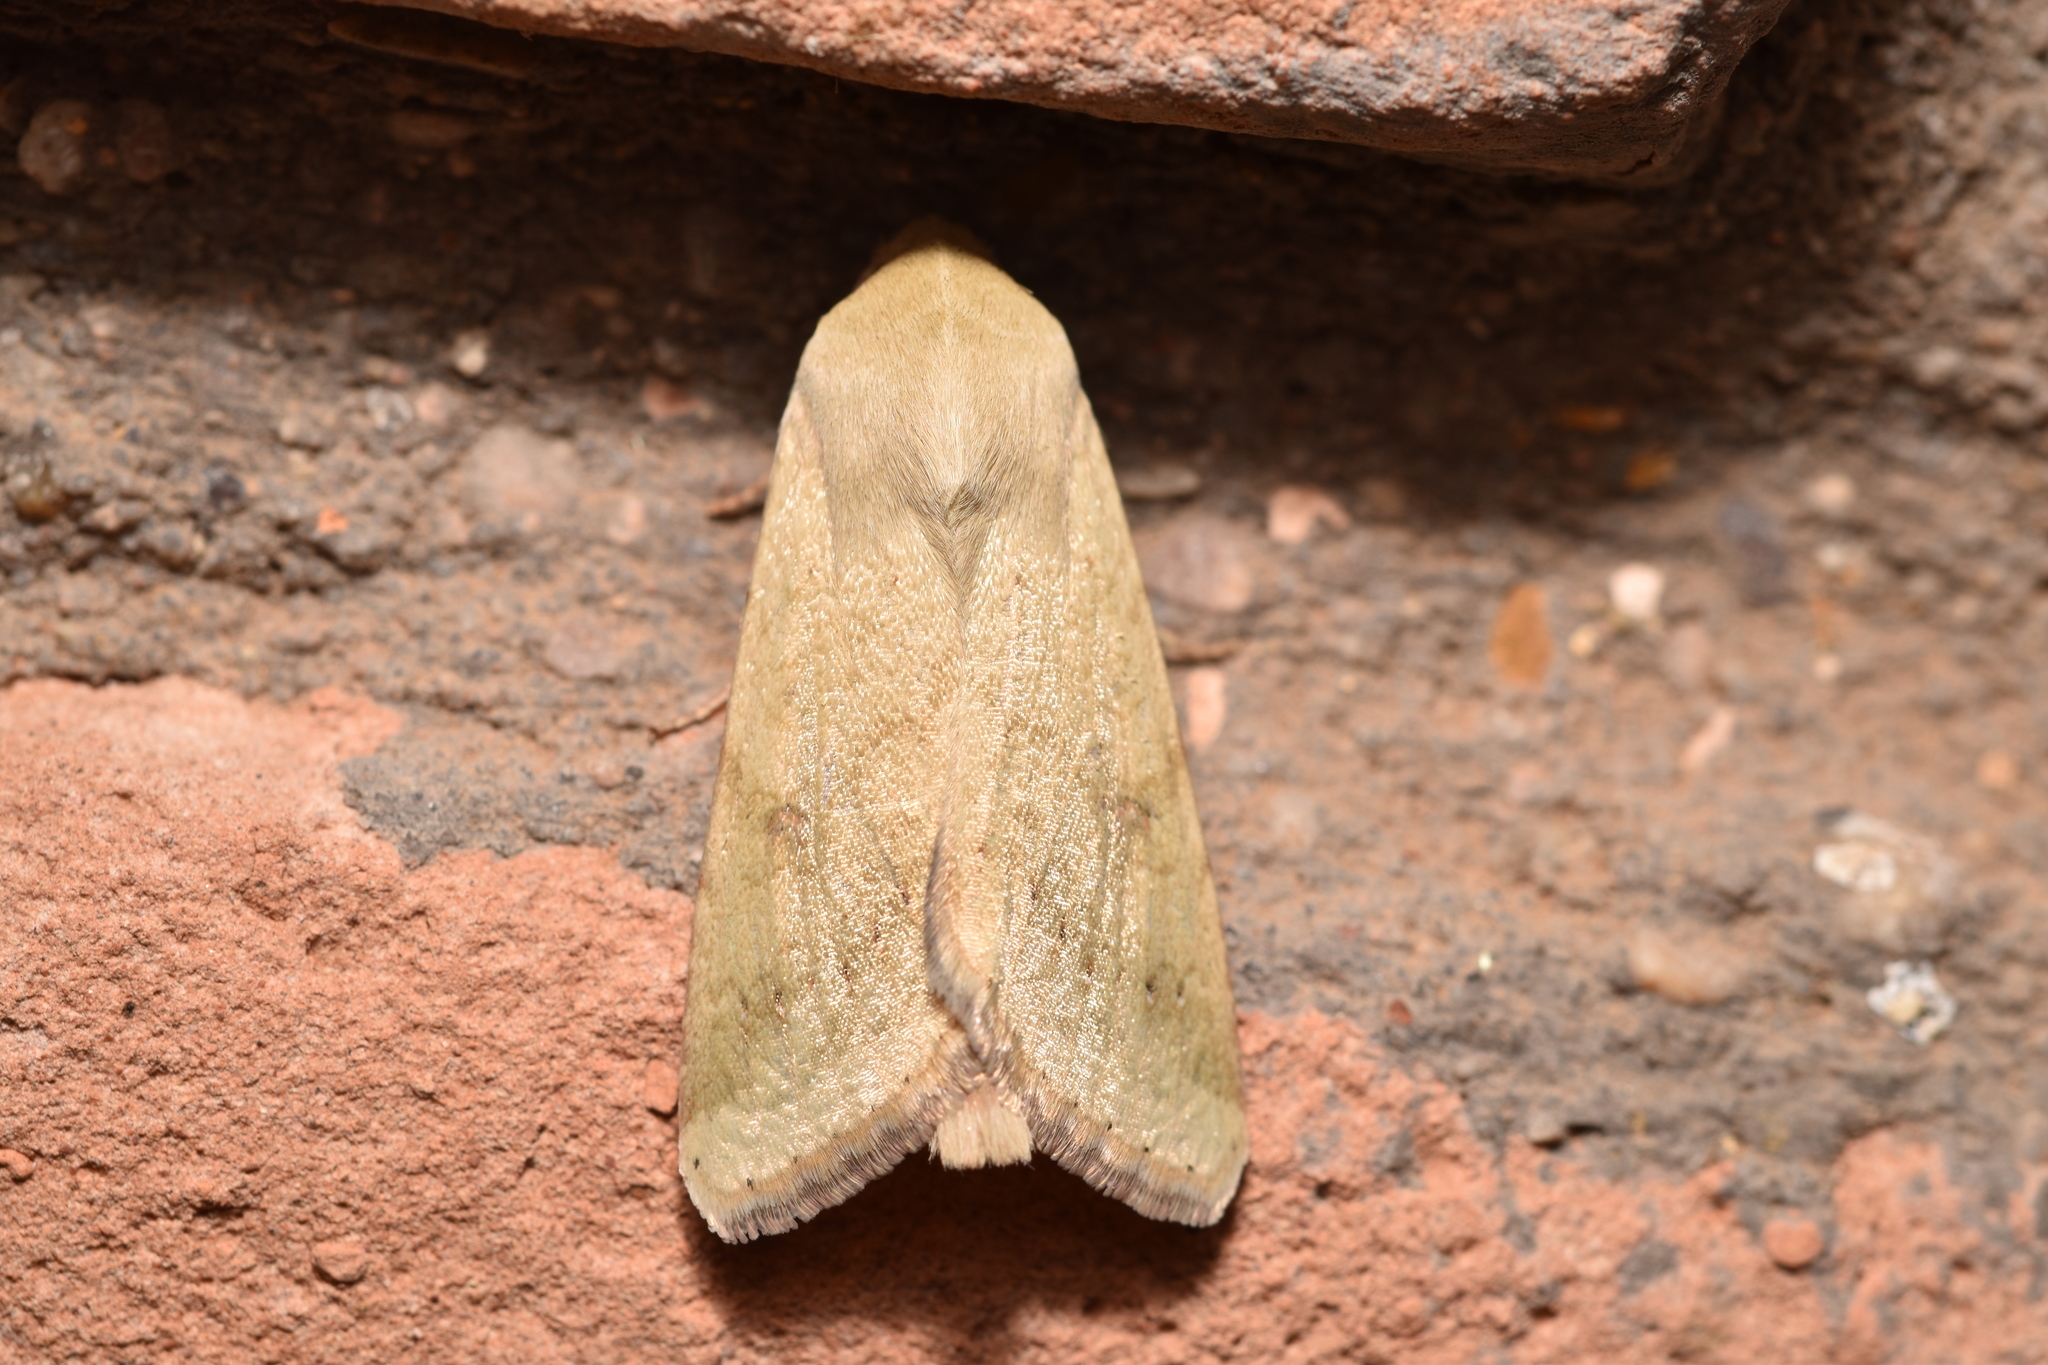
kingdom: Animalia
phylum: Arthropoda
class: Insecta
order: Lepidoptera
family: Noctuidae
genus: Helicoverpa
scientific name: Helicoverpa zea
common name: Bollworm
